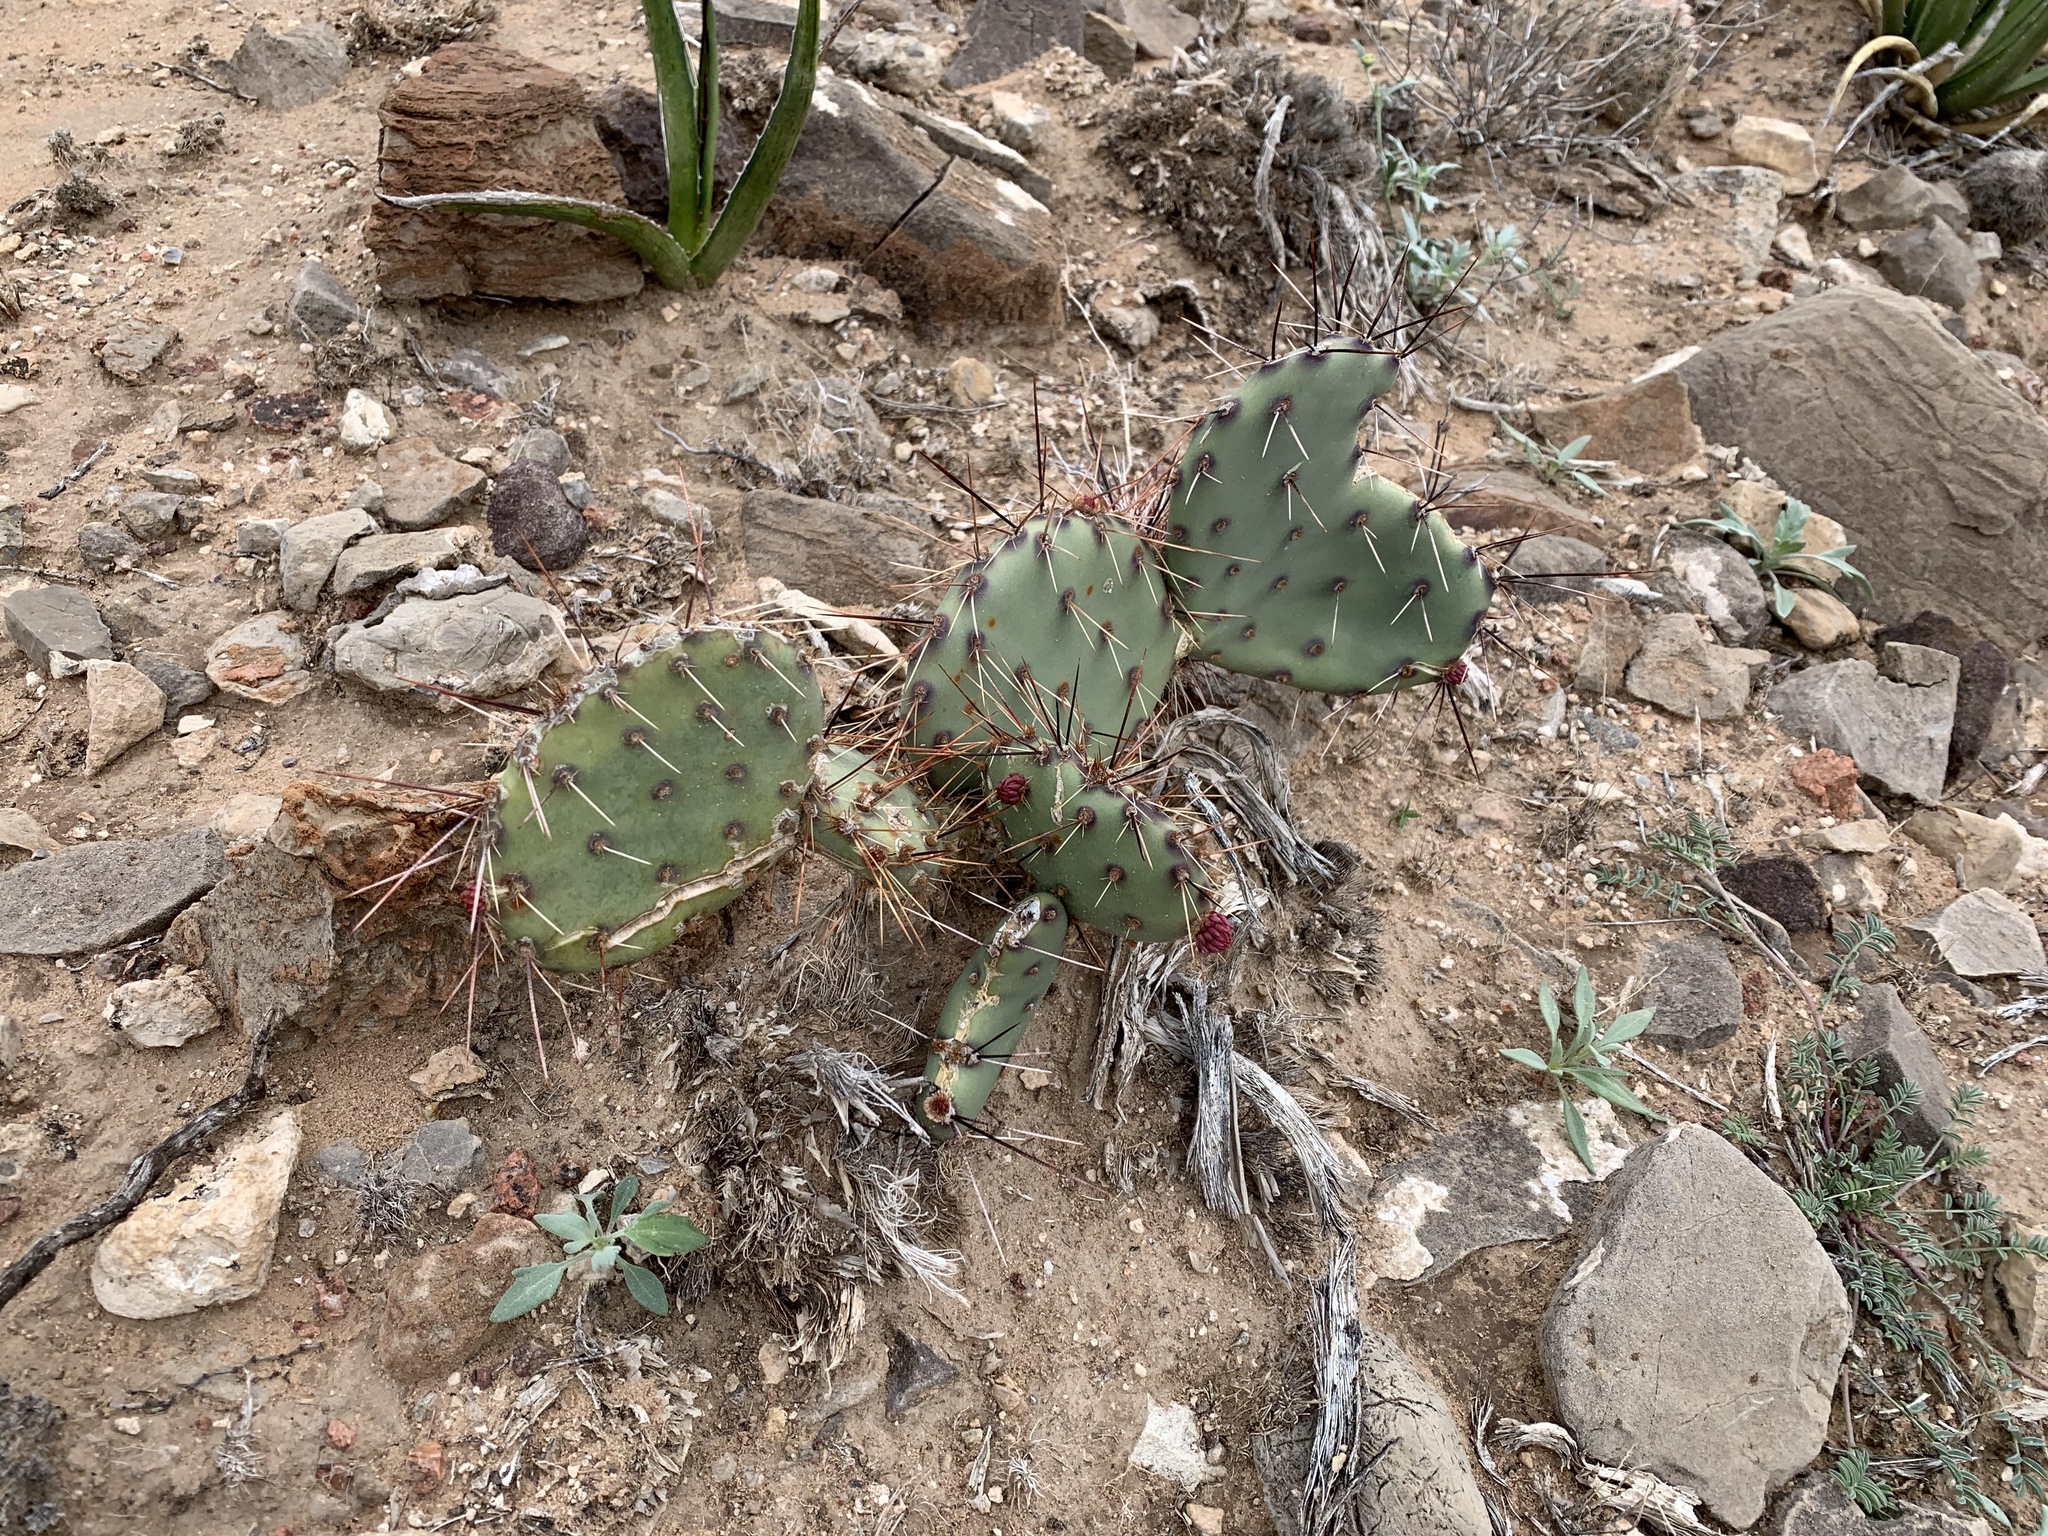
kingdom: Plantae
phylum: Tracheophyta
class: Magnoliopsida
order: Caryophyllales
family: Cactaceae
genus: Opuntia
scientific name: Opuntia phaeacantha
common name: New mexico prickly-pear
